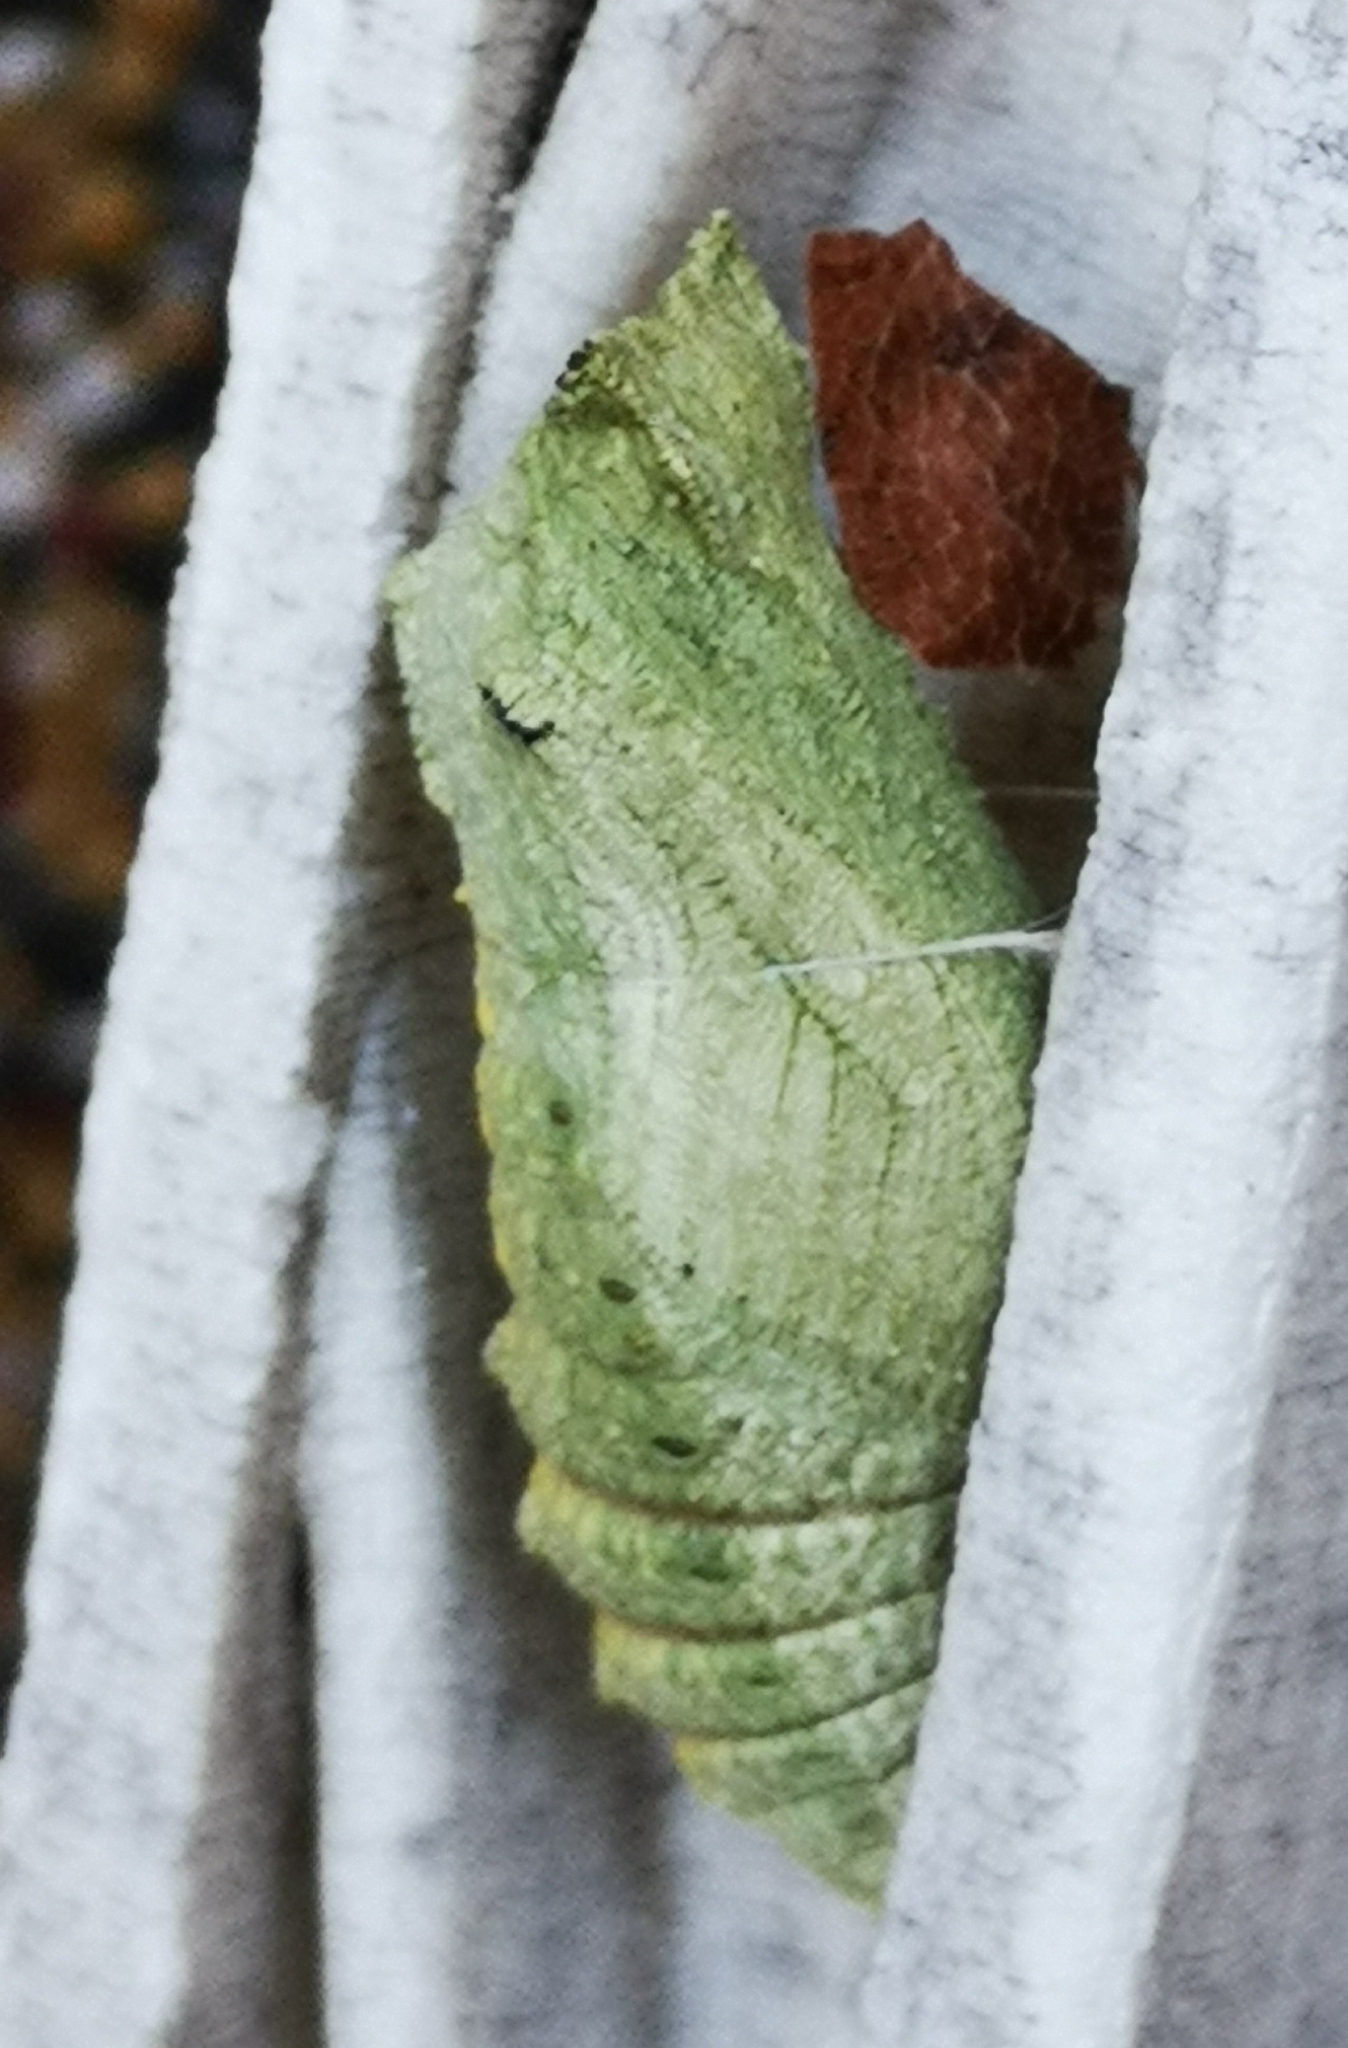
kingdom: Animalia
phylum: Arthropoda
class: Insecta
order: Lepidoptera
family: Papilionidae
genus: Papilio
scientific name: Papilio machaon
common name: Swallowtail
